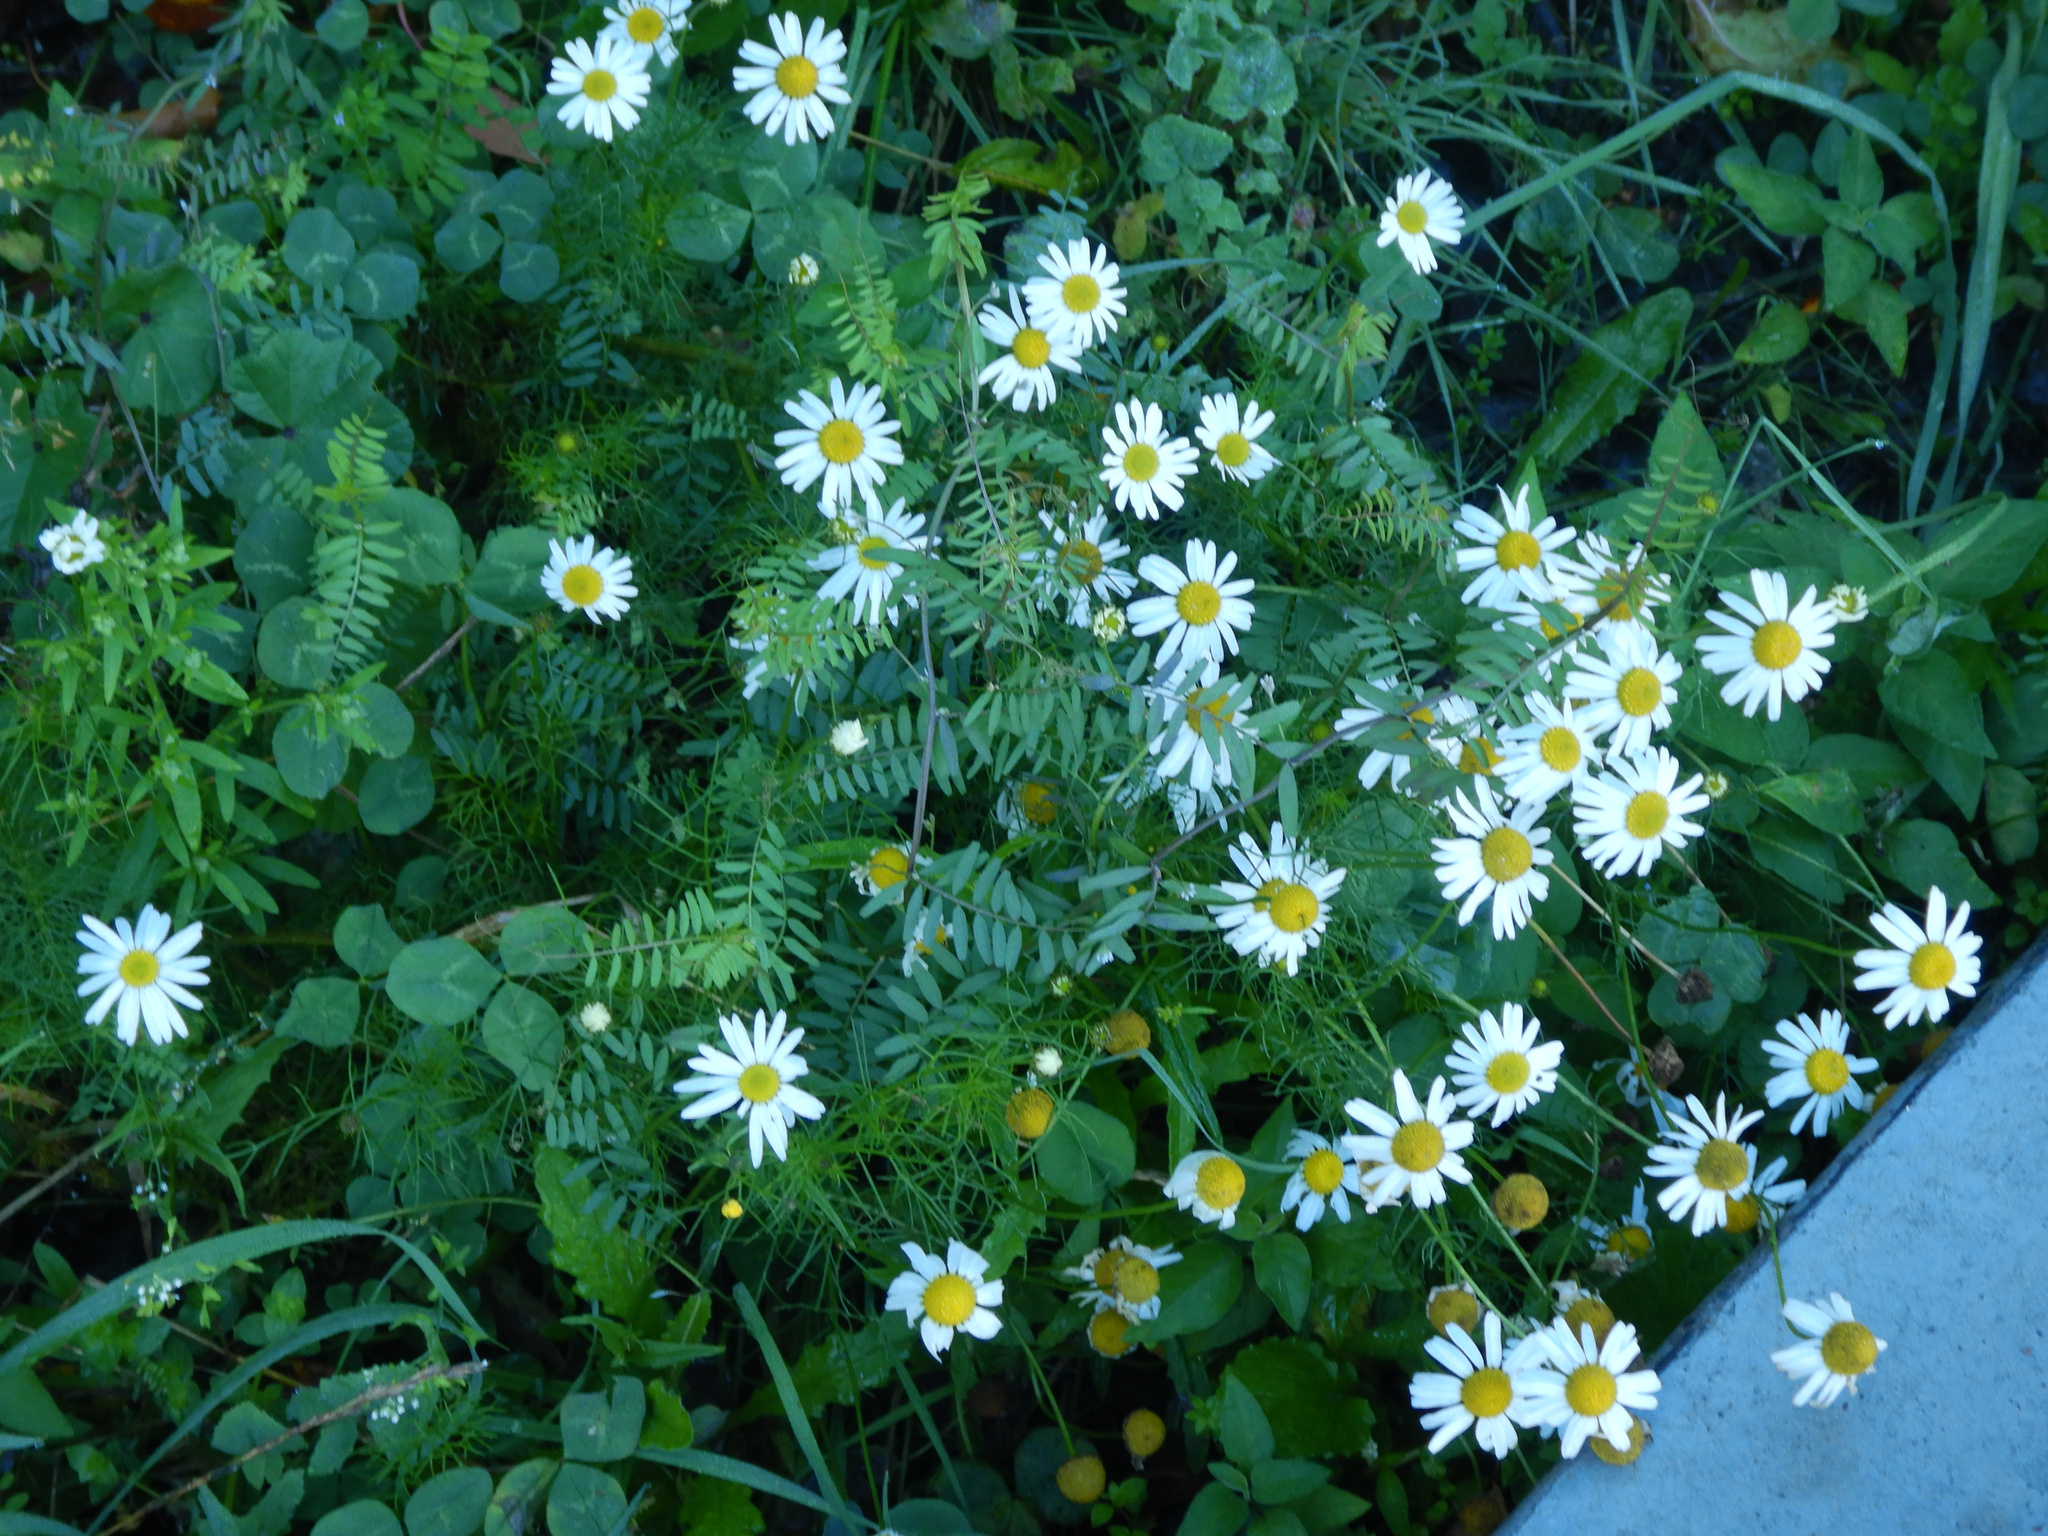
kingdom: Plantae
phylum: Tracheophyta
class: Magnoliopsida
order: Asterales
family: Asteraceae
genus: Tripleurospermum
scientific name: Tripleurospermum inodorum
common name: Scentless mayweed
